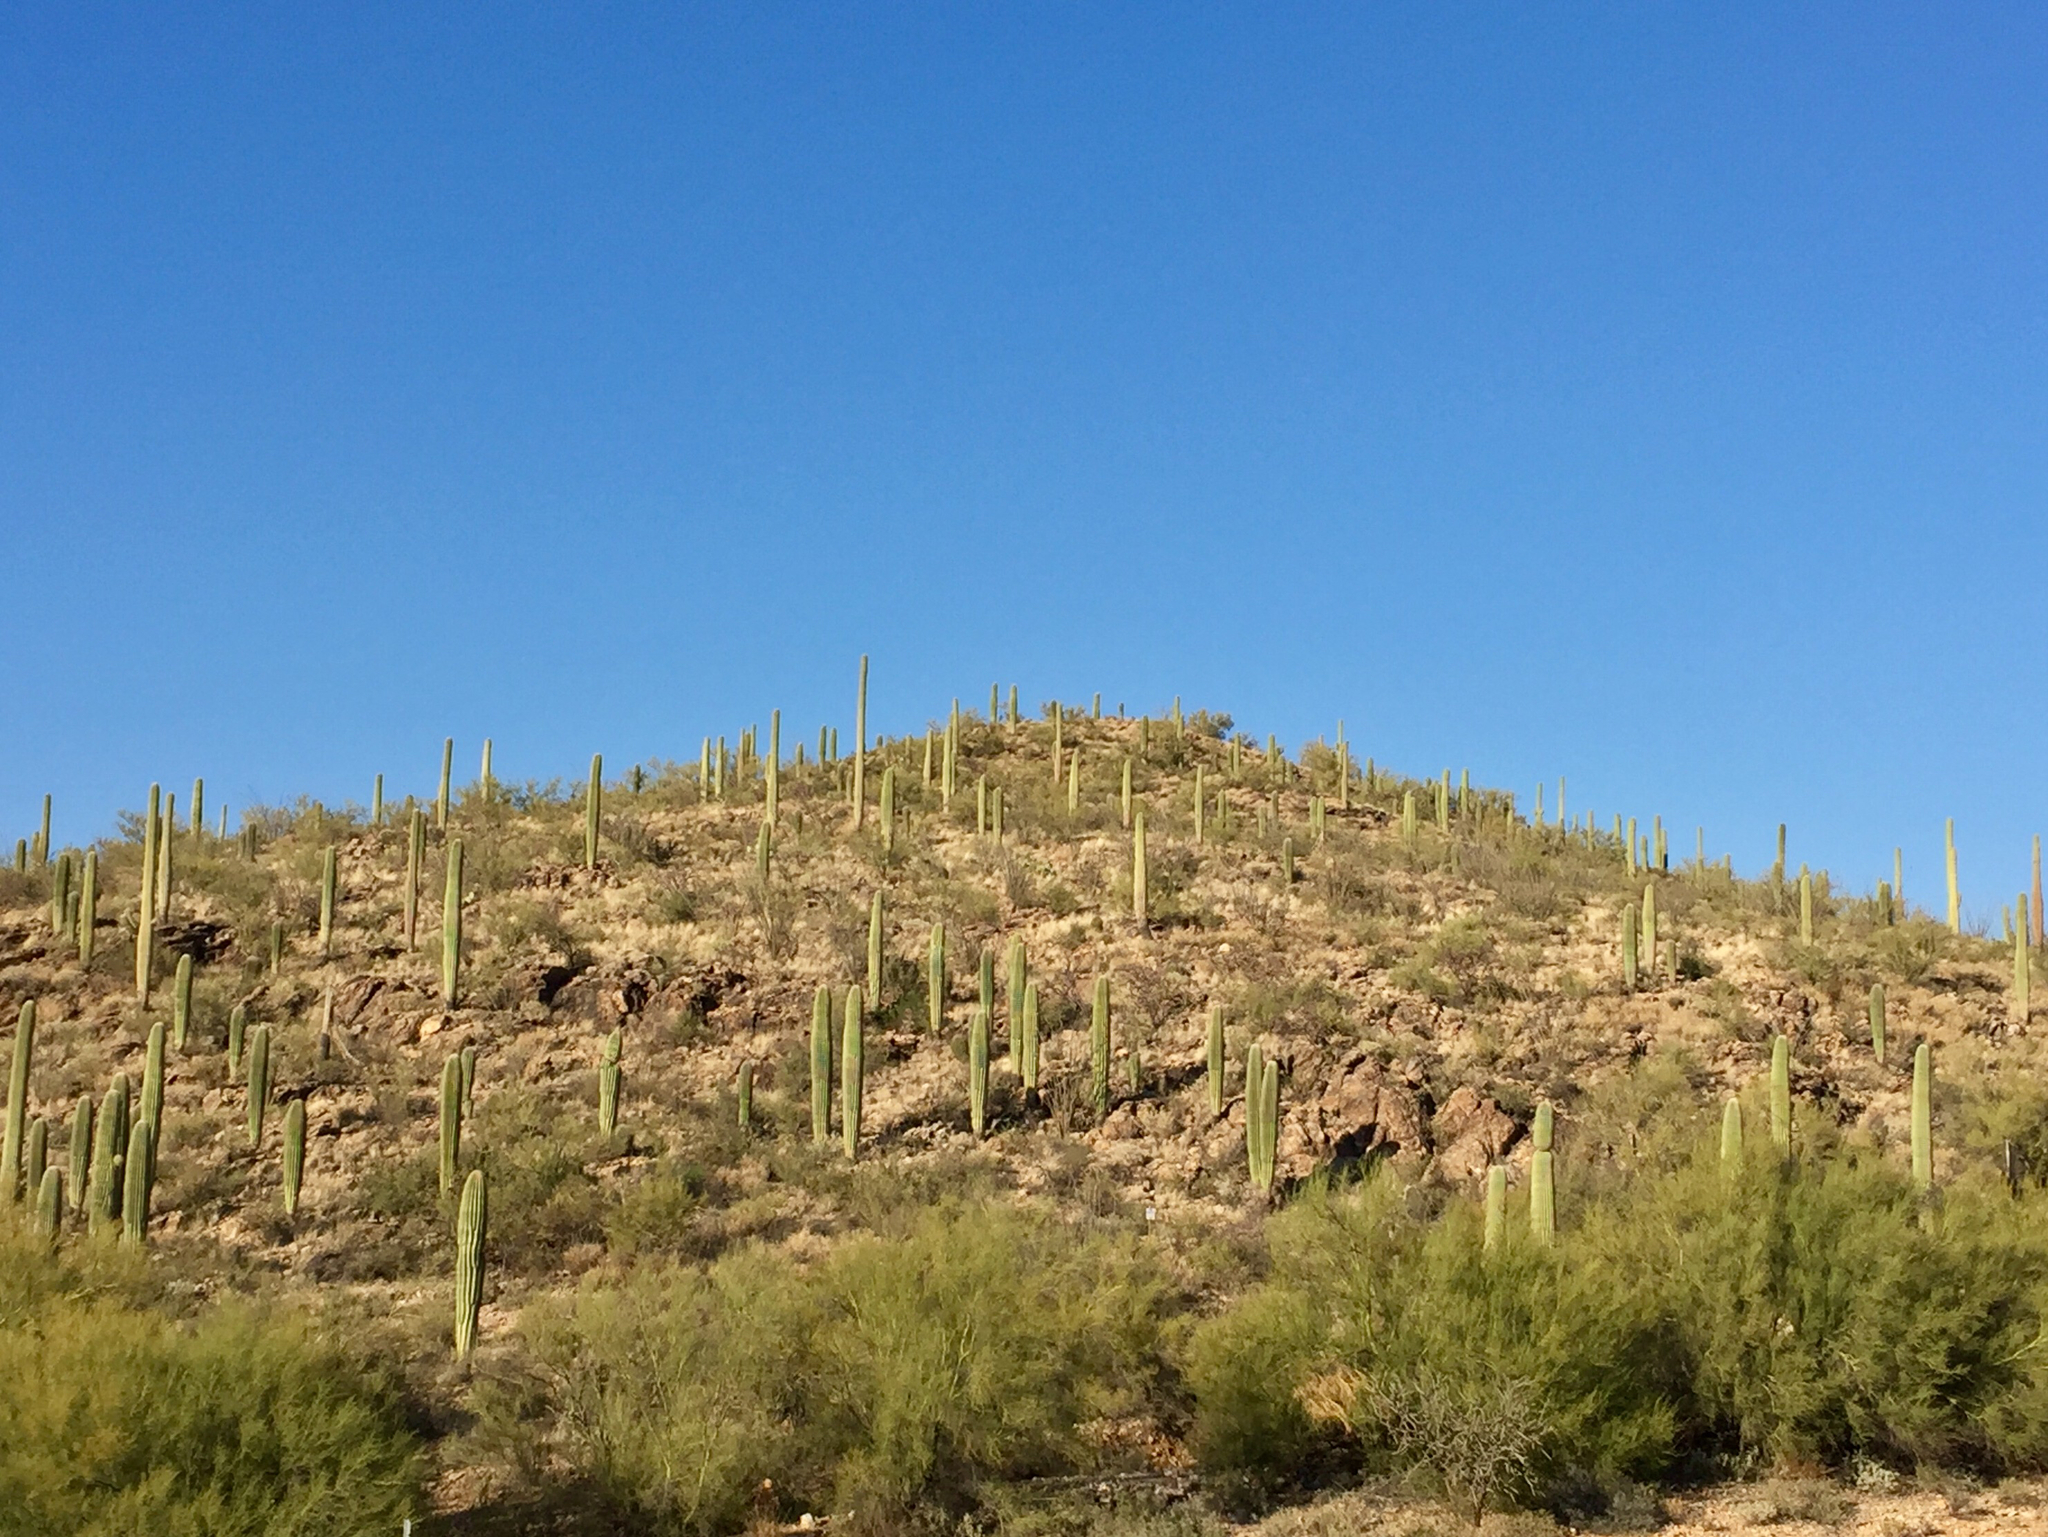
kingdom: Plantae
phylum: Tracheophyta
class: Magnoliopsida
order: Caryophyllales
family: Cactaceae
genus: Carnegiea
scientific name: Carnegiea gigantea
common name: Saguaro
